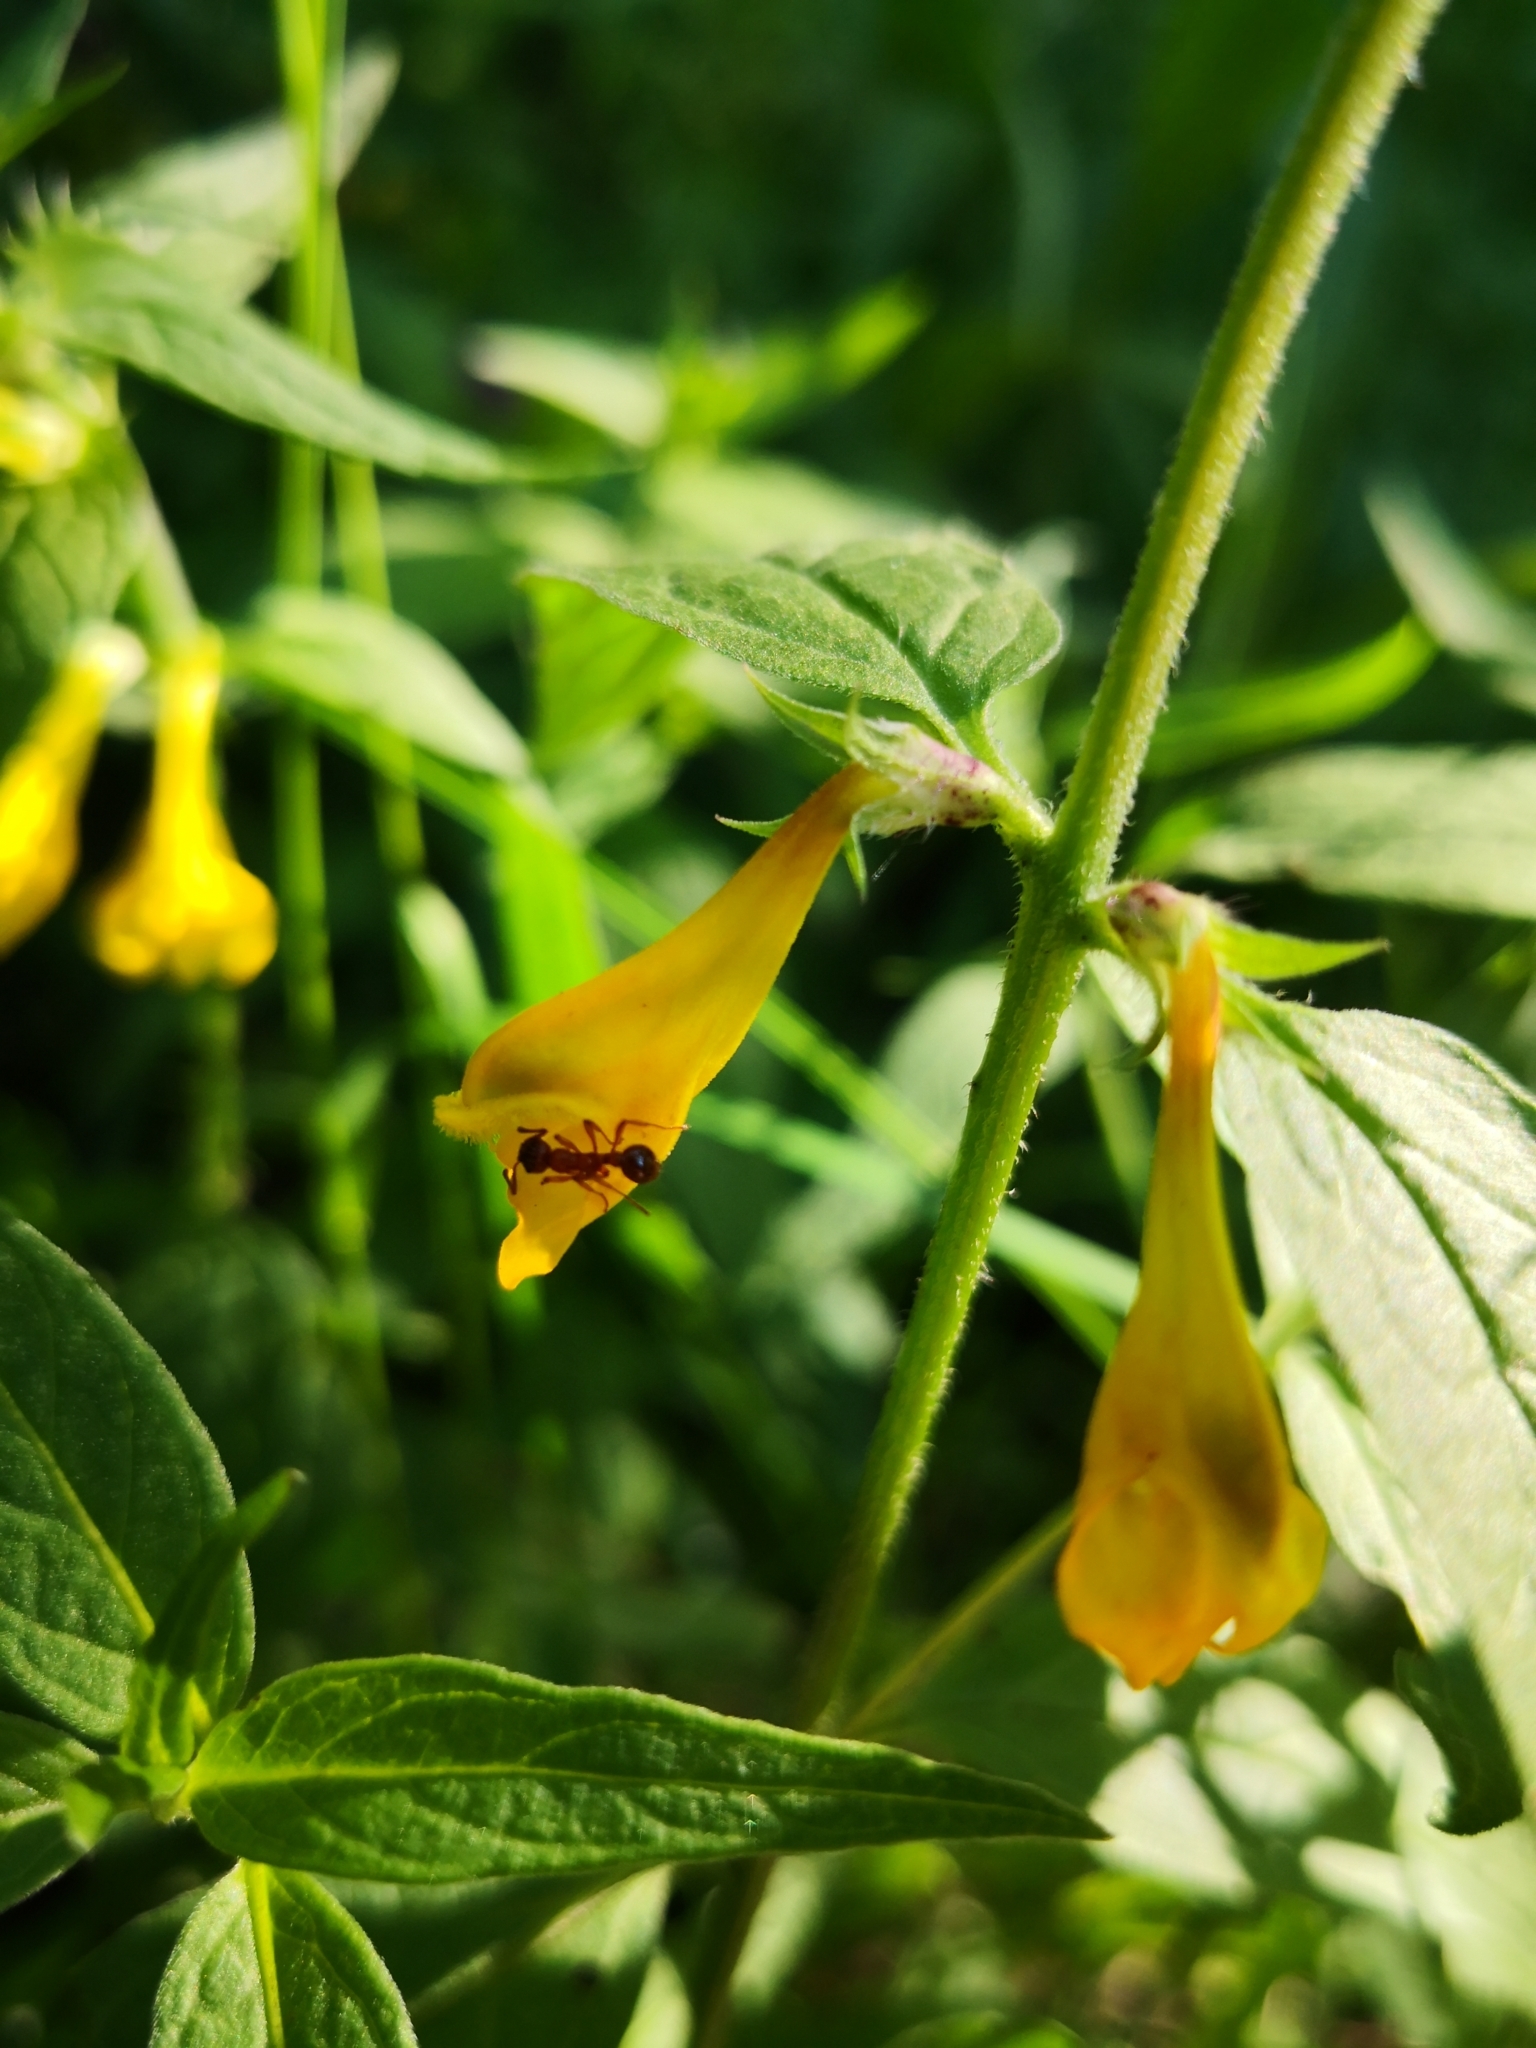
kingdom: Plantae
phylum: Tracheophyta
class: Magnoliopsida
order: Lamiales
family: Orobanchaceae
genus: Melampyrum
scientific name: Melampyrum nemorosum
